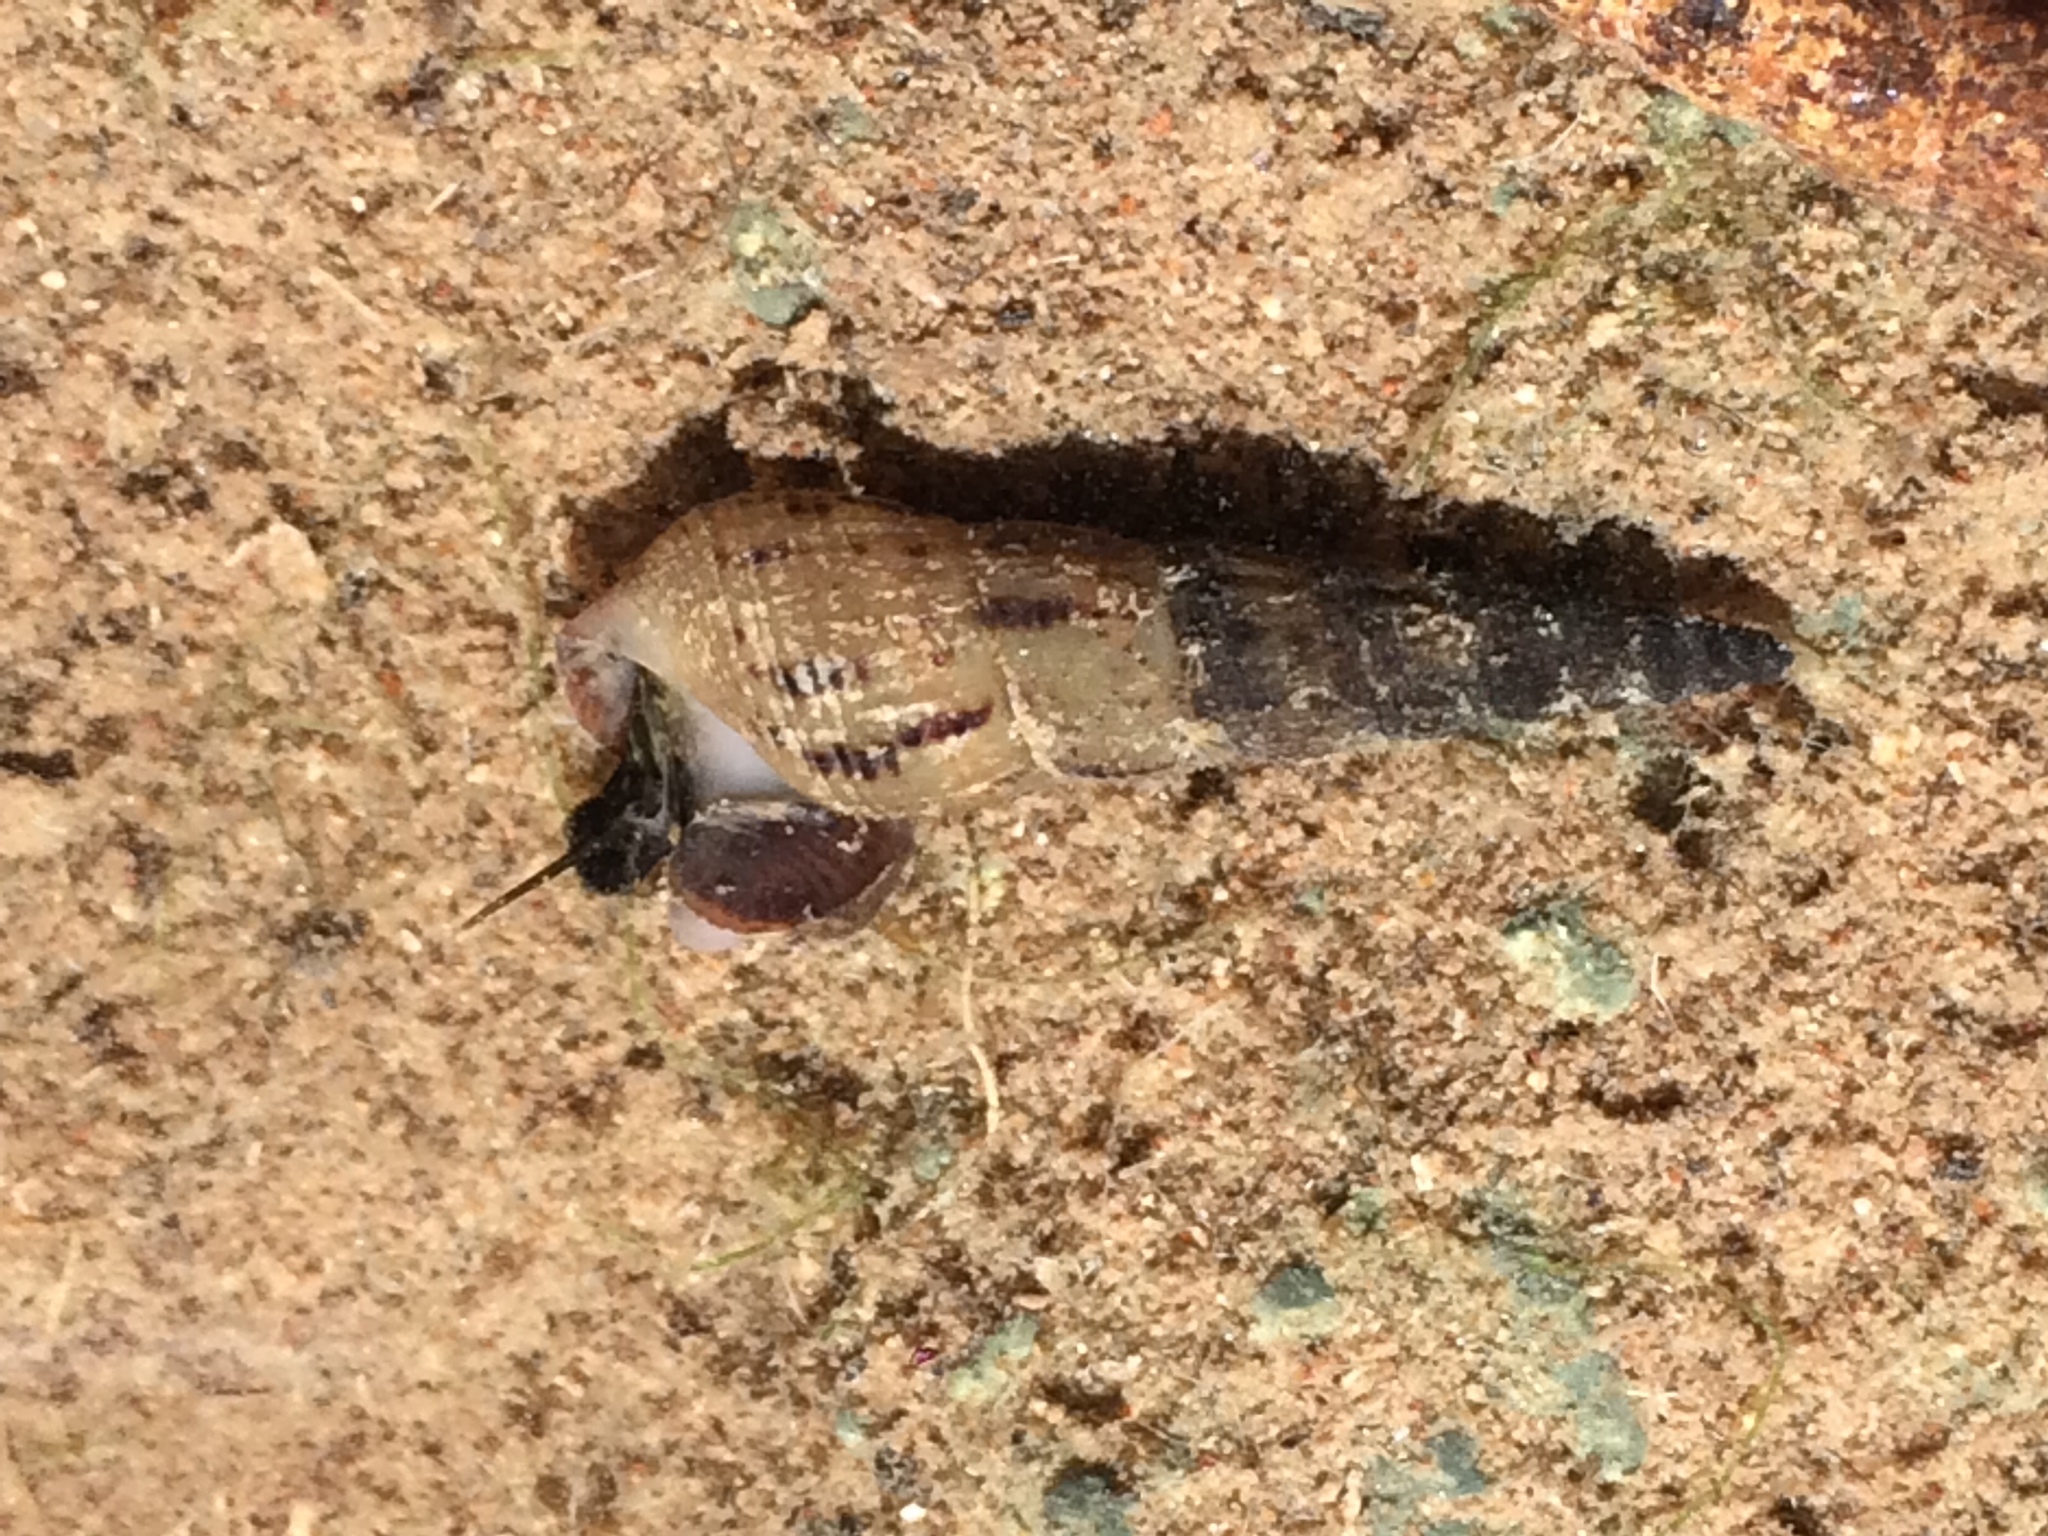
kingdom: Animalia
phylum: Mollusca
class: Gastropoda
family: Thiaridae
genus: Melanoides
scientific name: Melanoides tuberculata
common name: Red-rim melania
